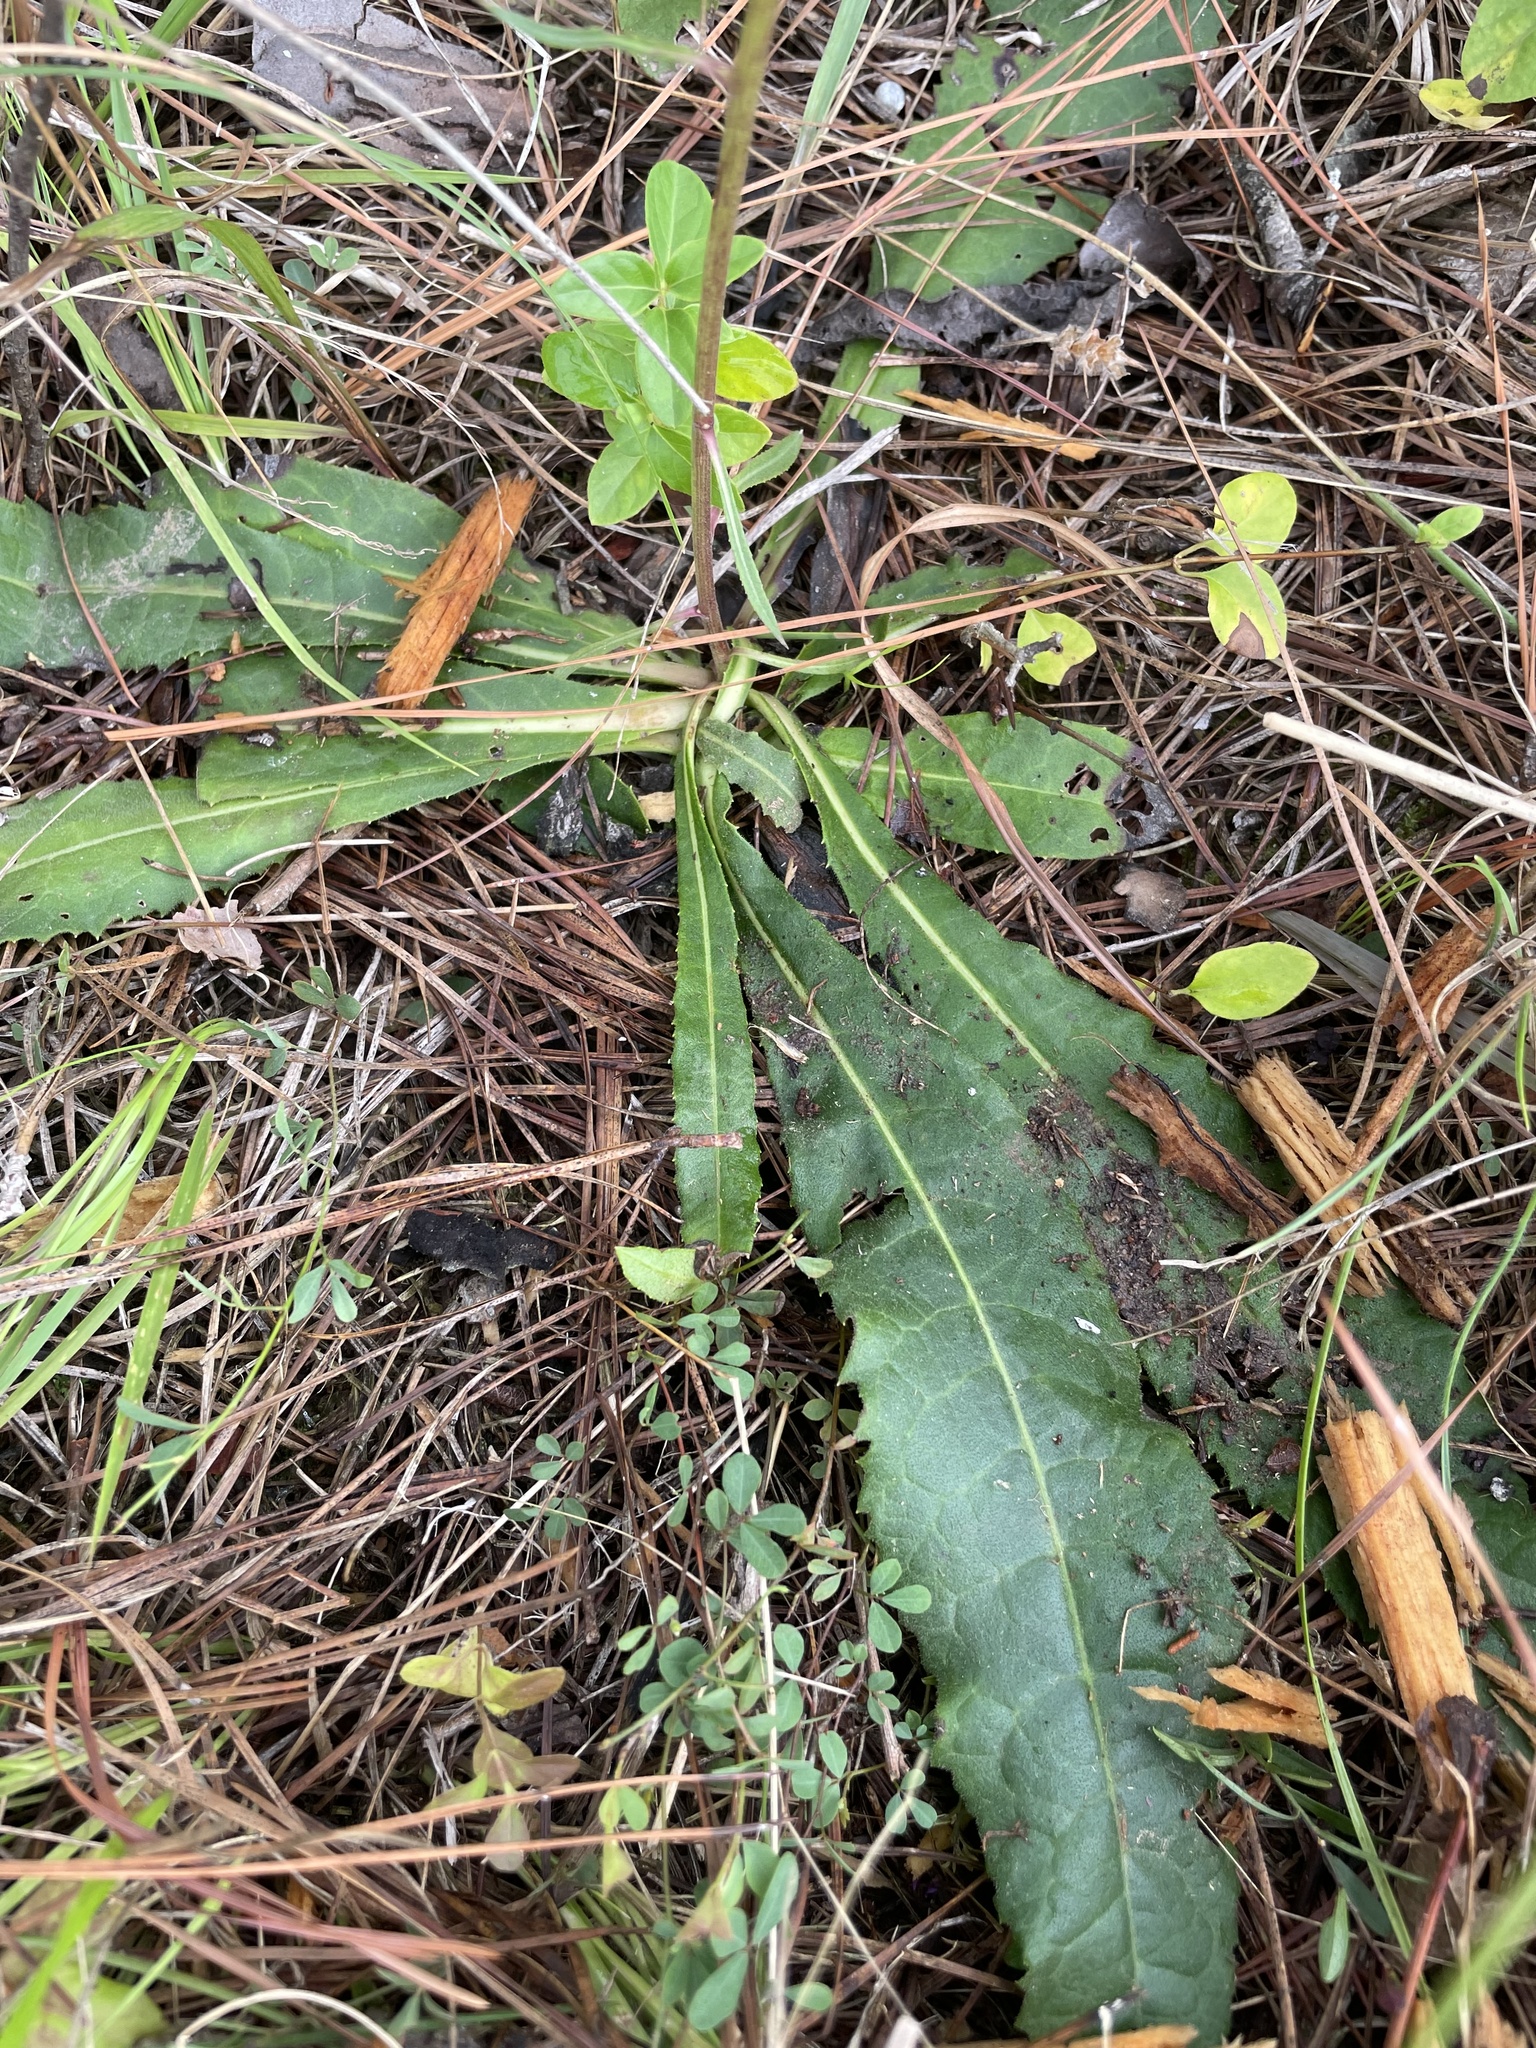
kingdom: Plantae
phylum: Tracheophyta
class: Magnoliopsida
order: Asterales
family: Asteraceae
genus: Vernonia
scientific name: Vernonia acaulis
